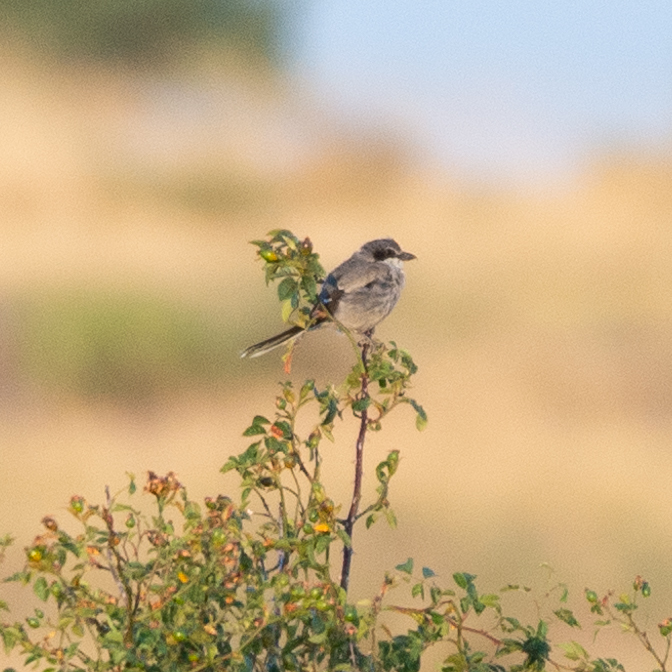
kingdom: Animalia
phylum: Chordata
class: Aves
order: Passeriformes
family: Laniidae
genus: Lanius
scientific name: Lanius meridionalis
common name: Iberian grey shrike
